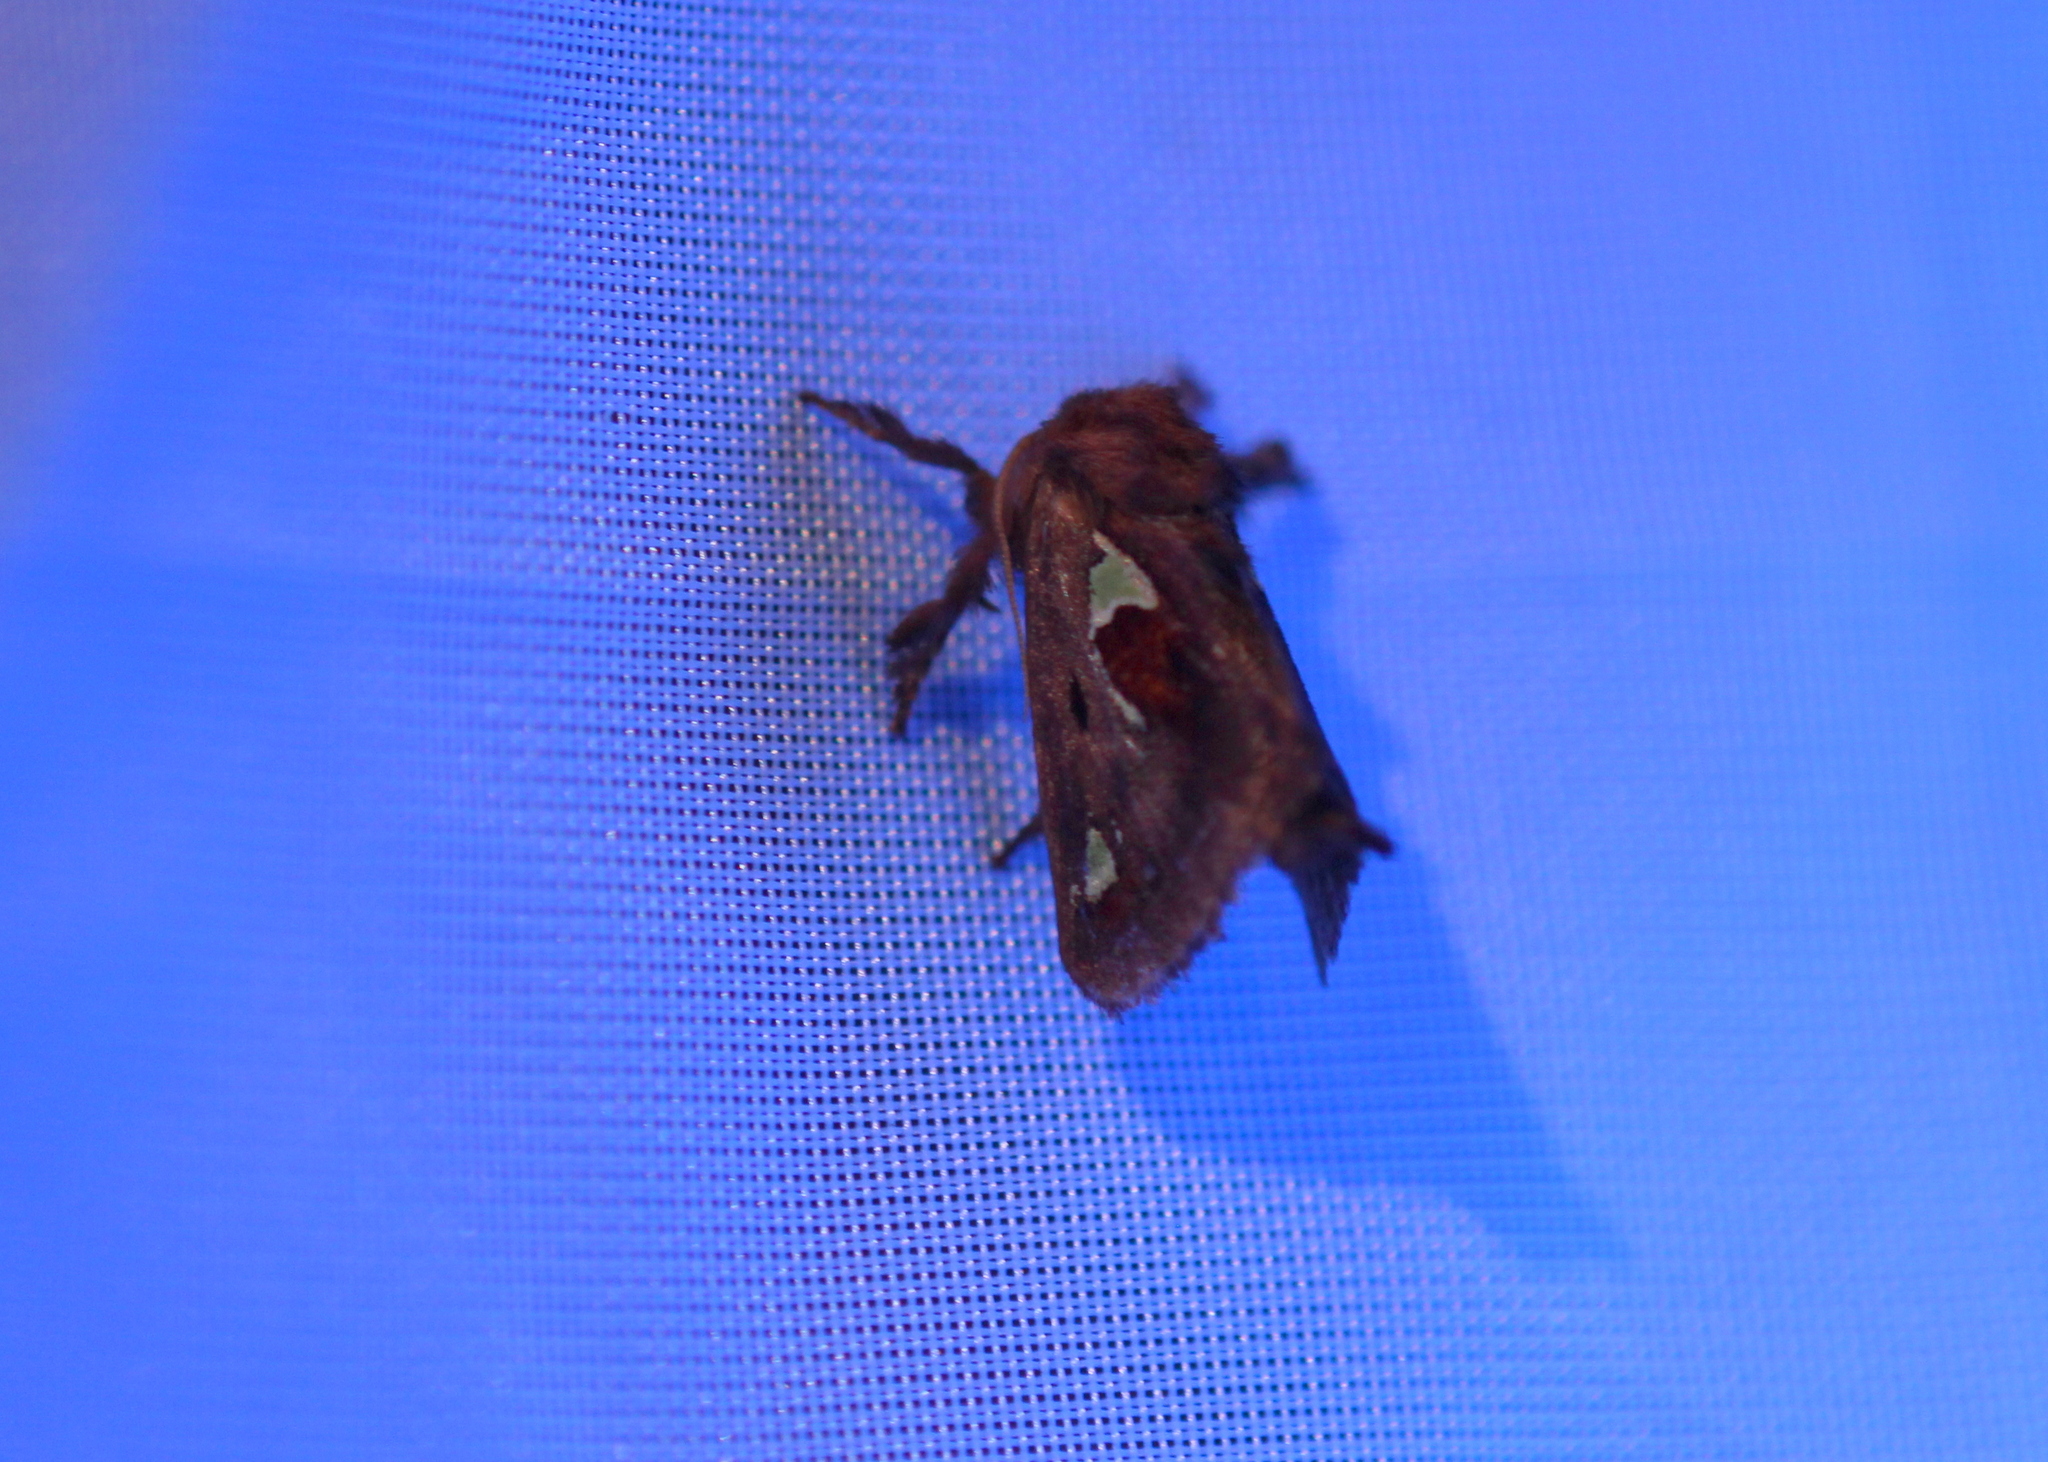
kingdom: Animalia
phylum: Arthropoda
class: Insecta
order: Lepidoptera
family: Limacodidae
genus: Euclea
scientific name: Euclea delphinii
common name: Spiny oak-slug moth
